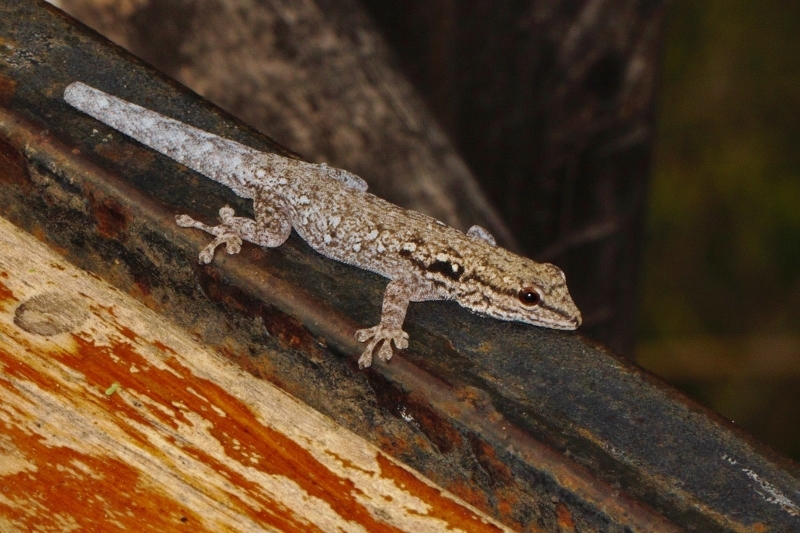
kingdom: Animalia
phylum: Chordata
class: Squamata
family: Gekkonidae
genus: Lygodactylus
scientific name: Lygodactylus chobiensis
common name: Okavango dwarf gecko
